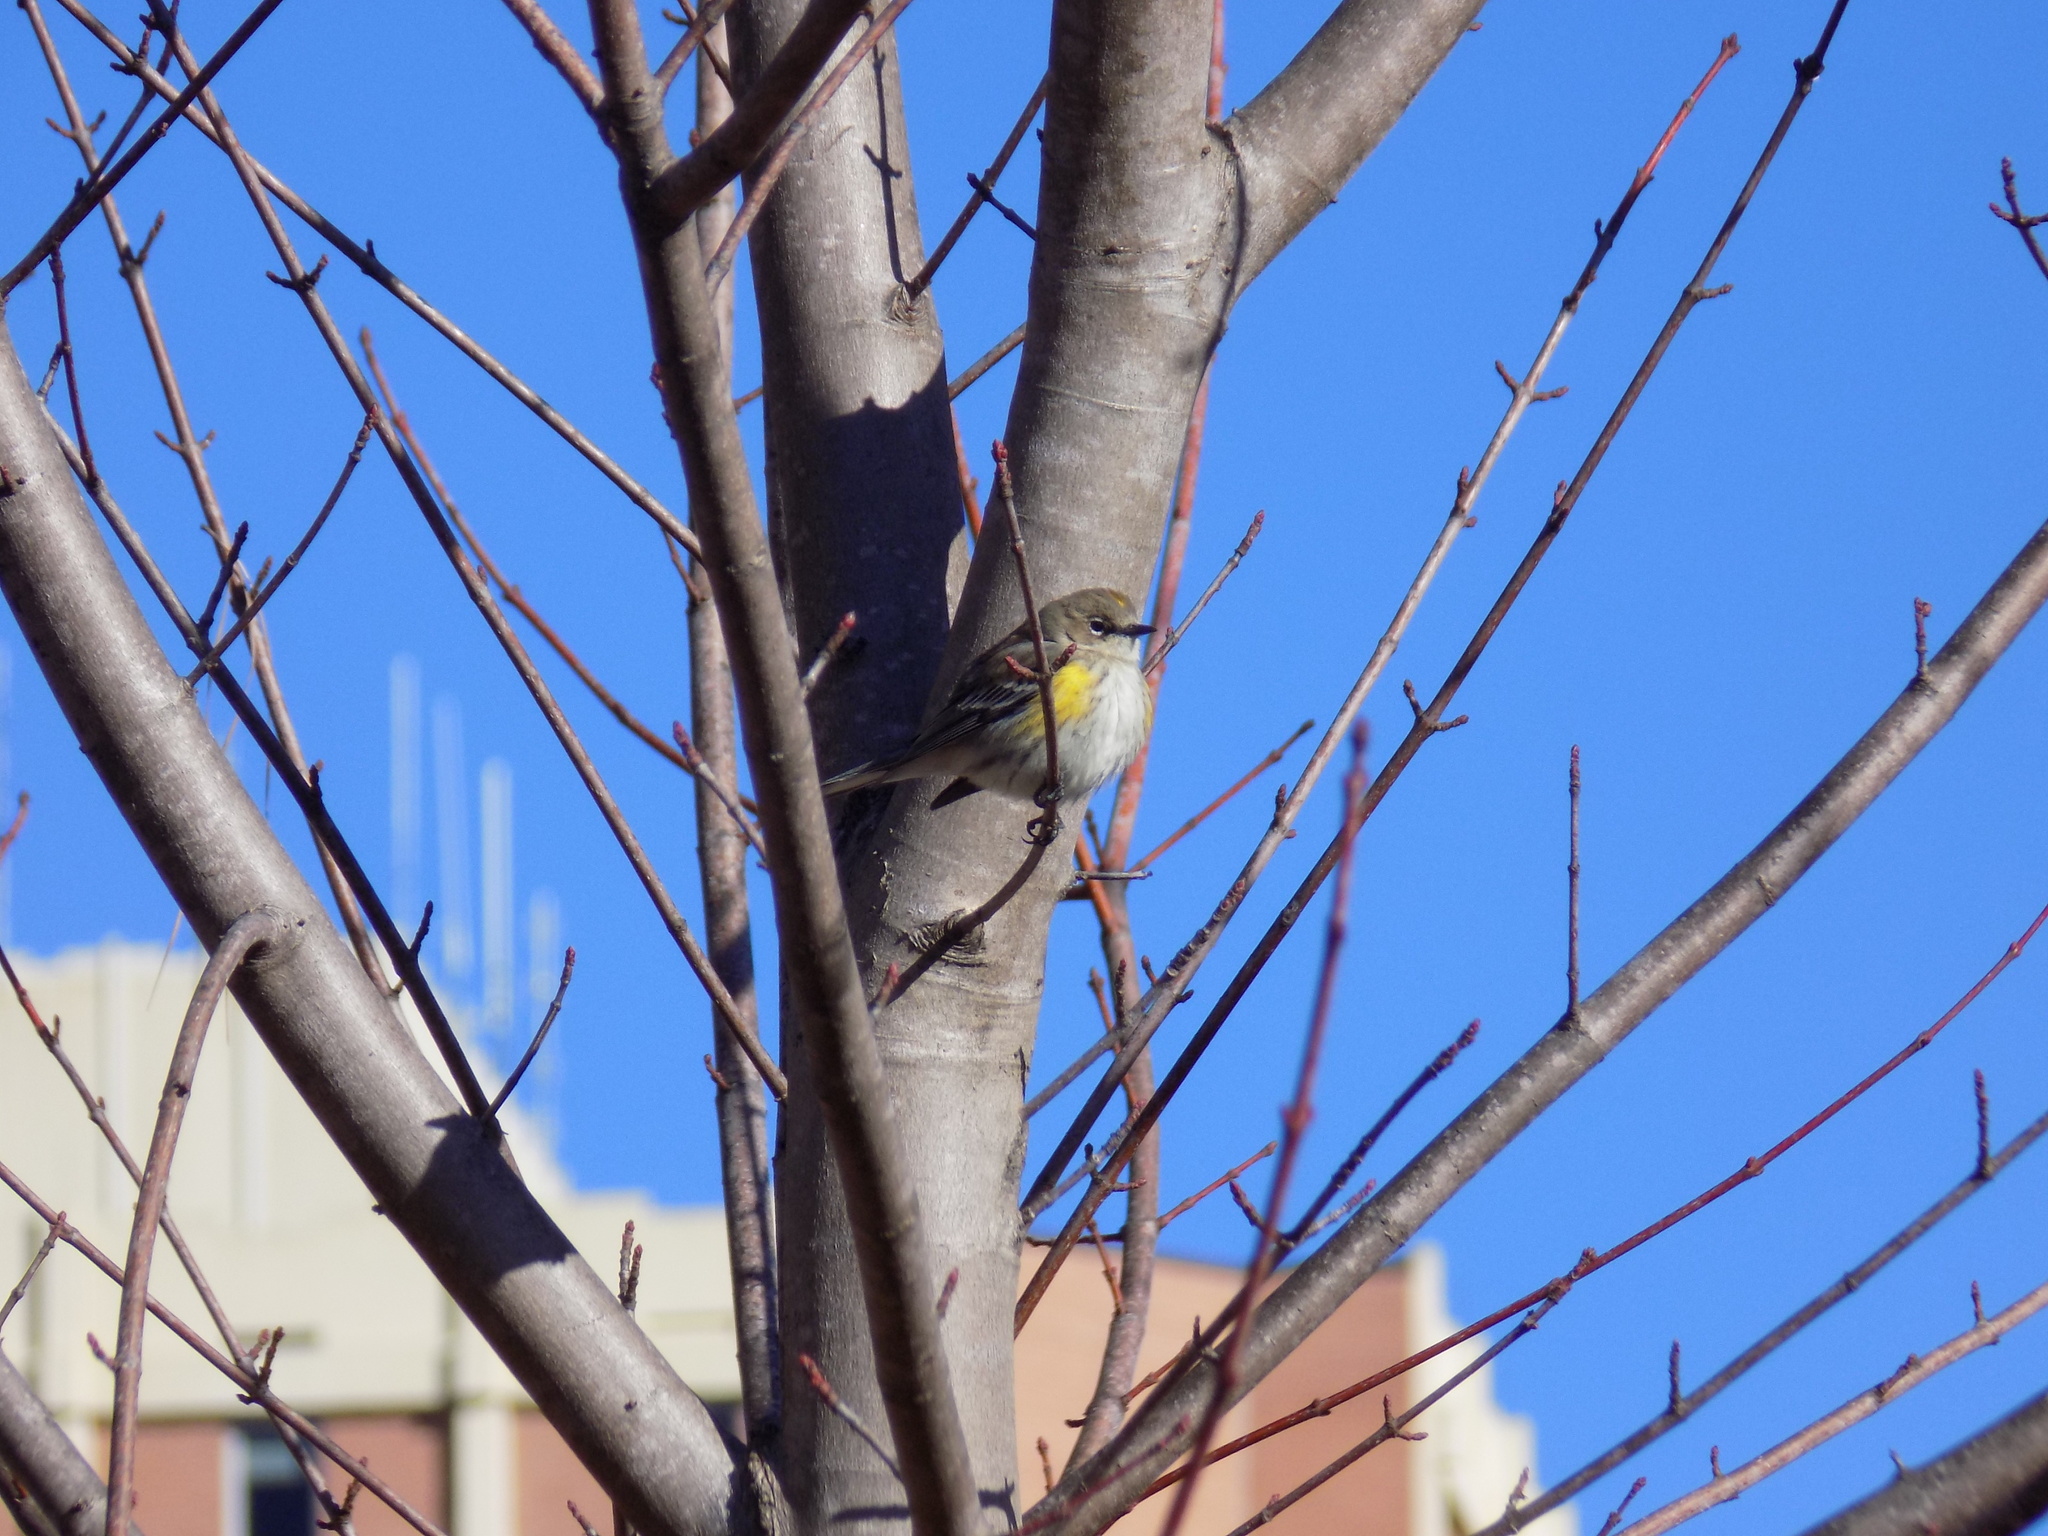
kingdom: Animalia
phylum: Chordata
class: Aves
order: Passeriformes
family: Parulidae
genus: Setophaga
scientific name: Setophaga coronata
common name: Myrtle warbler
